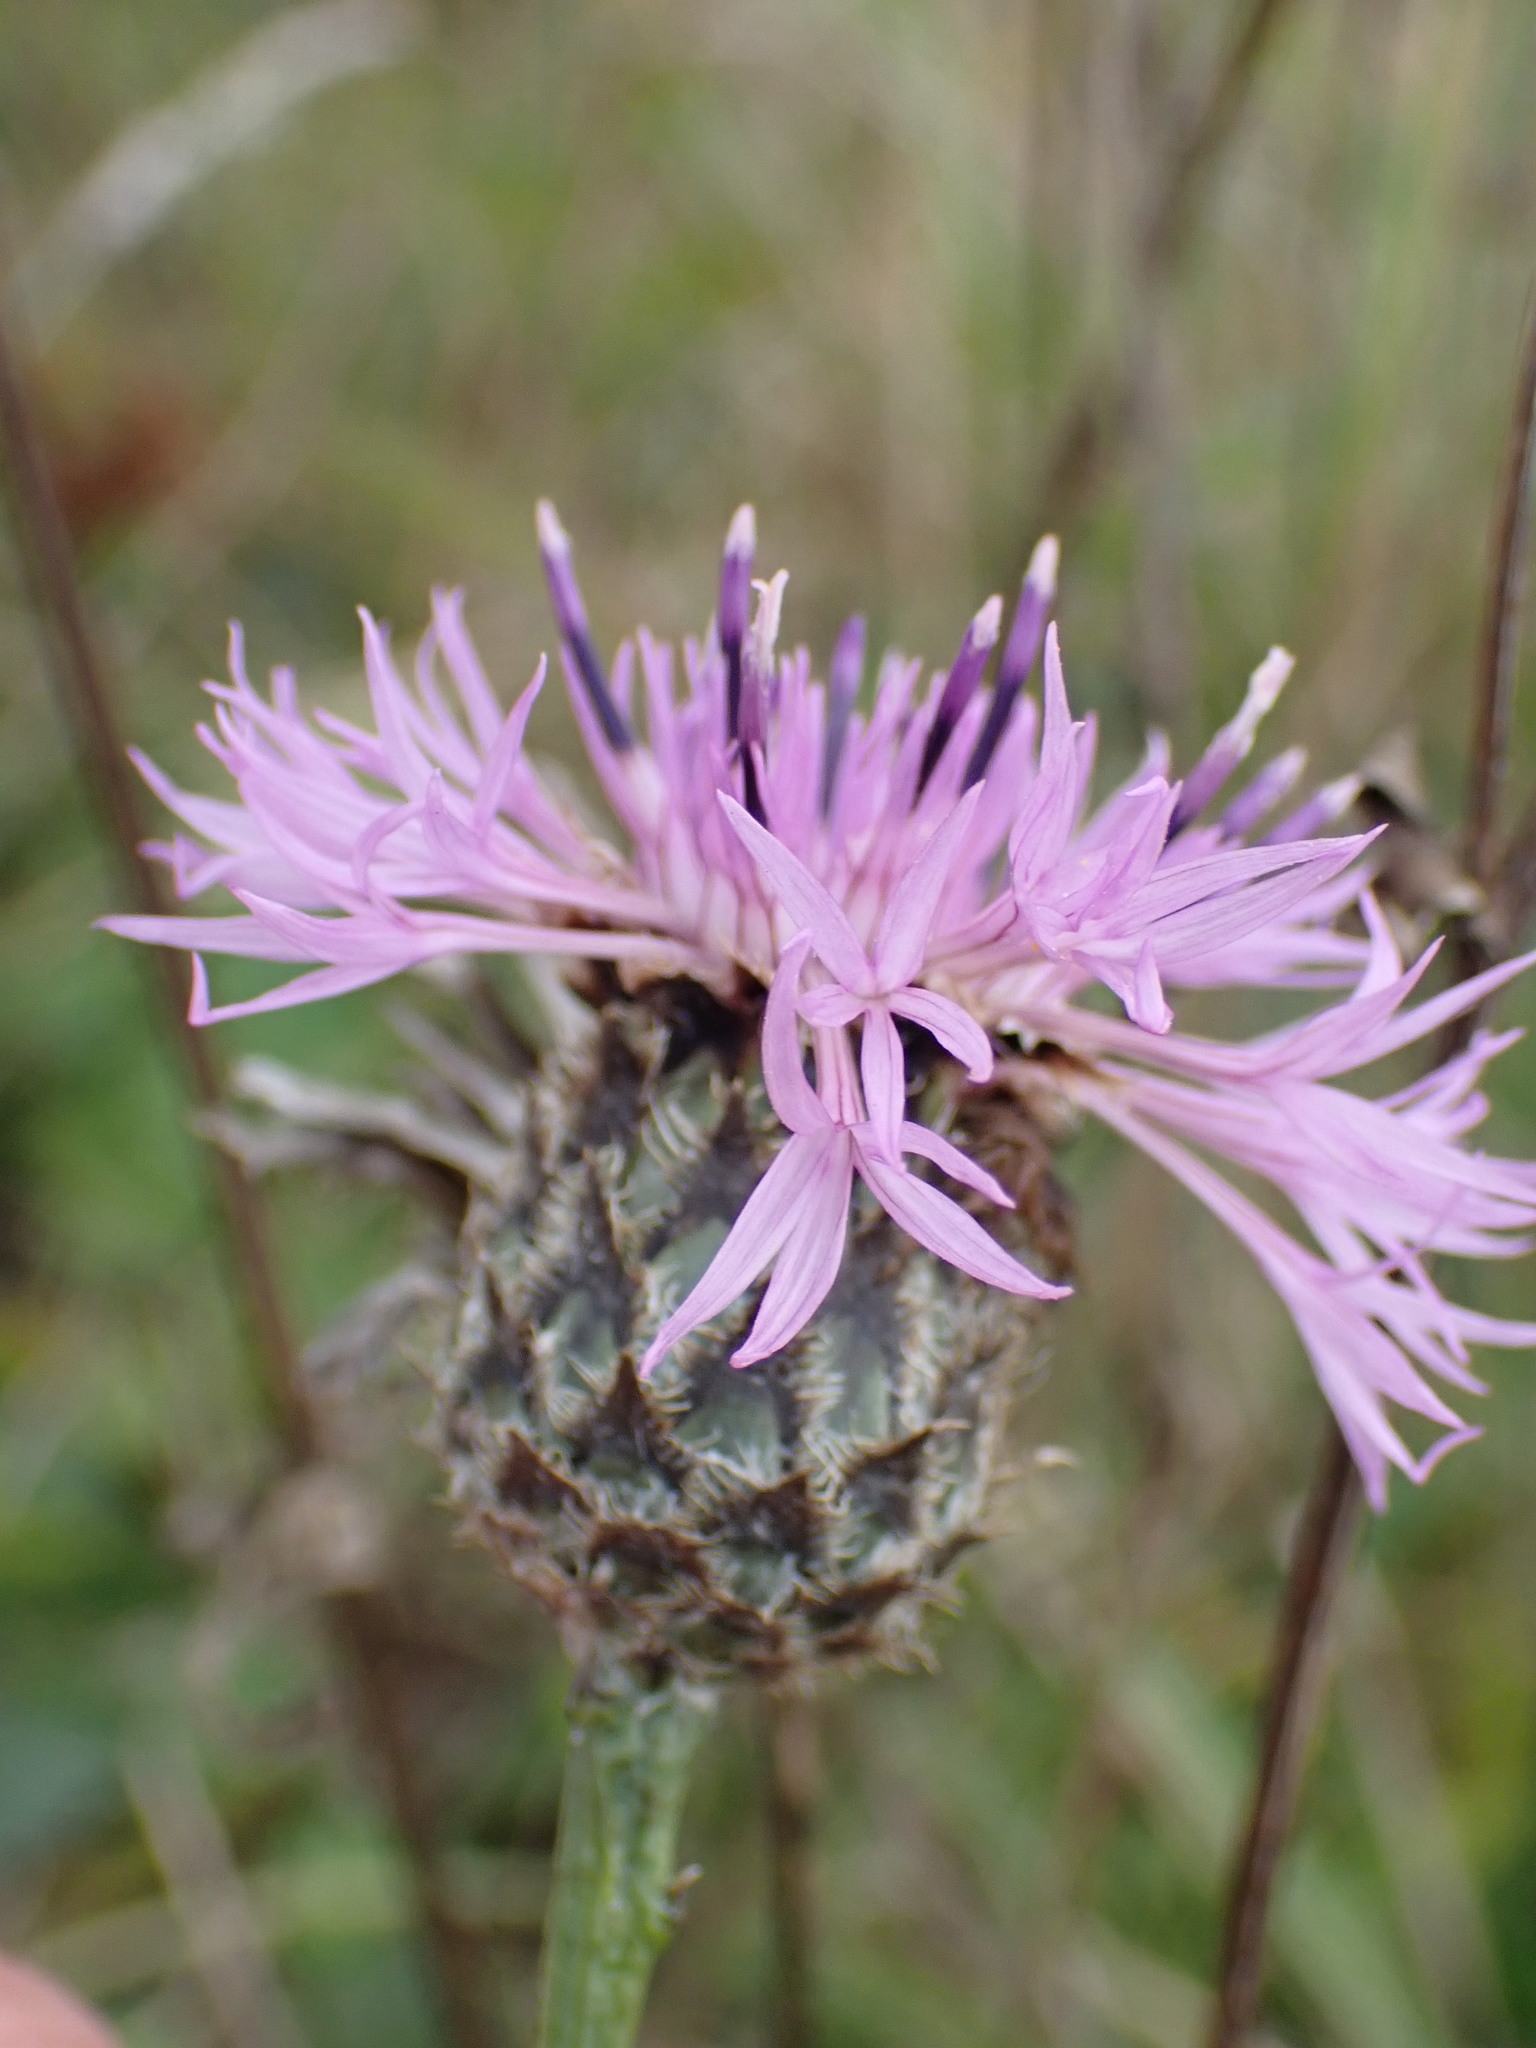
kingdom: Plantae
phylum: Tracheophyta
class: Magnoliopsida
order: Asterales
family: Asteraceae
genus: Centaurea
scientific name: Centaurea scabiosa
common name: Greater knapweed
